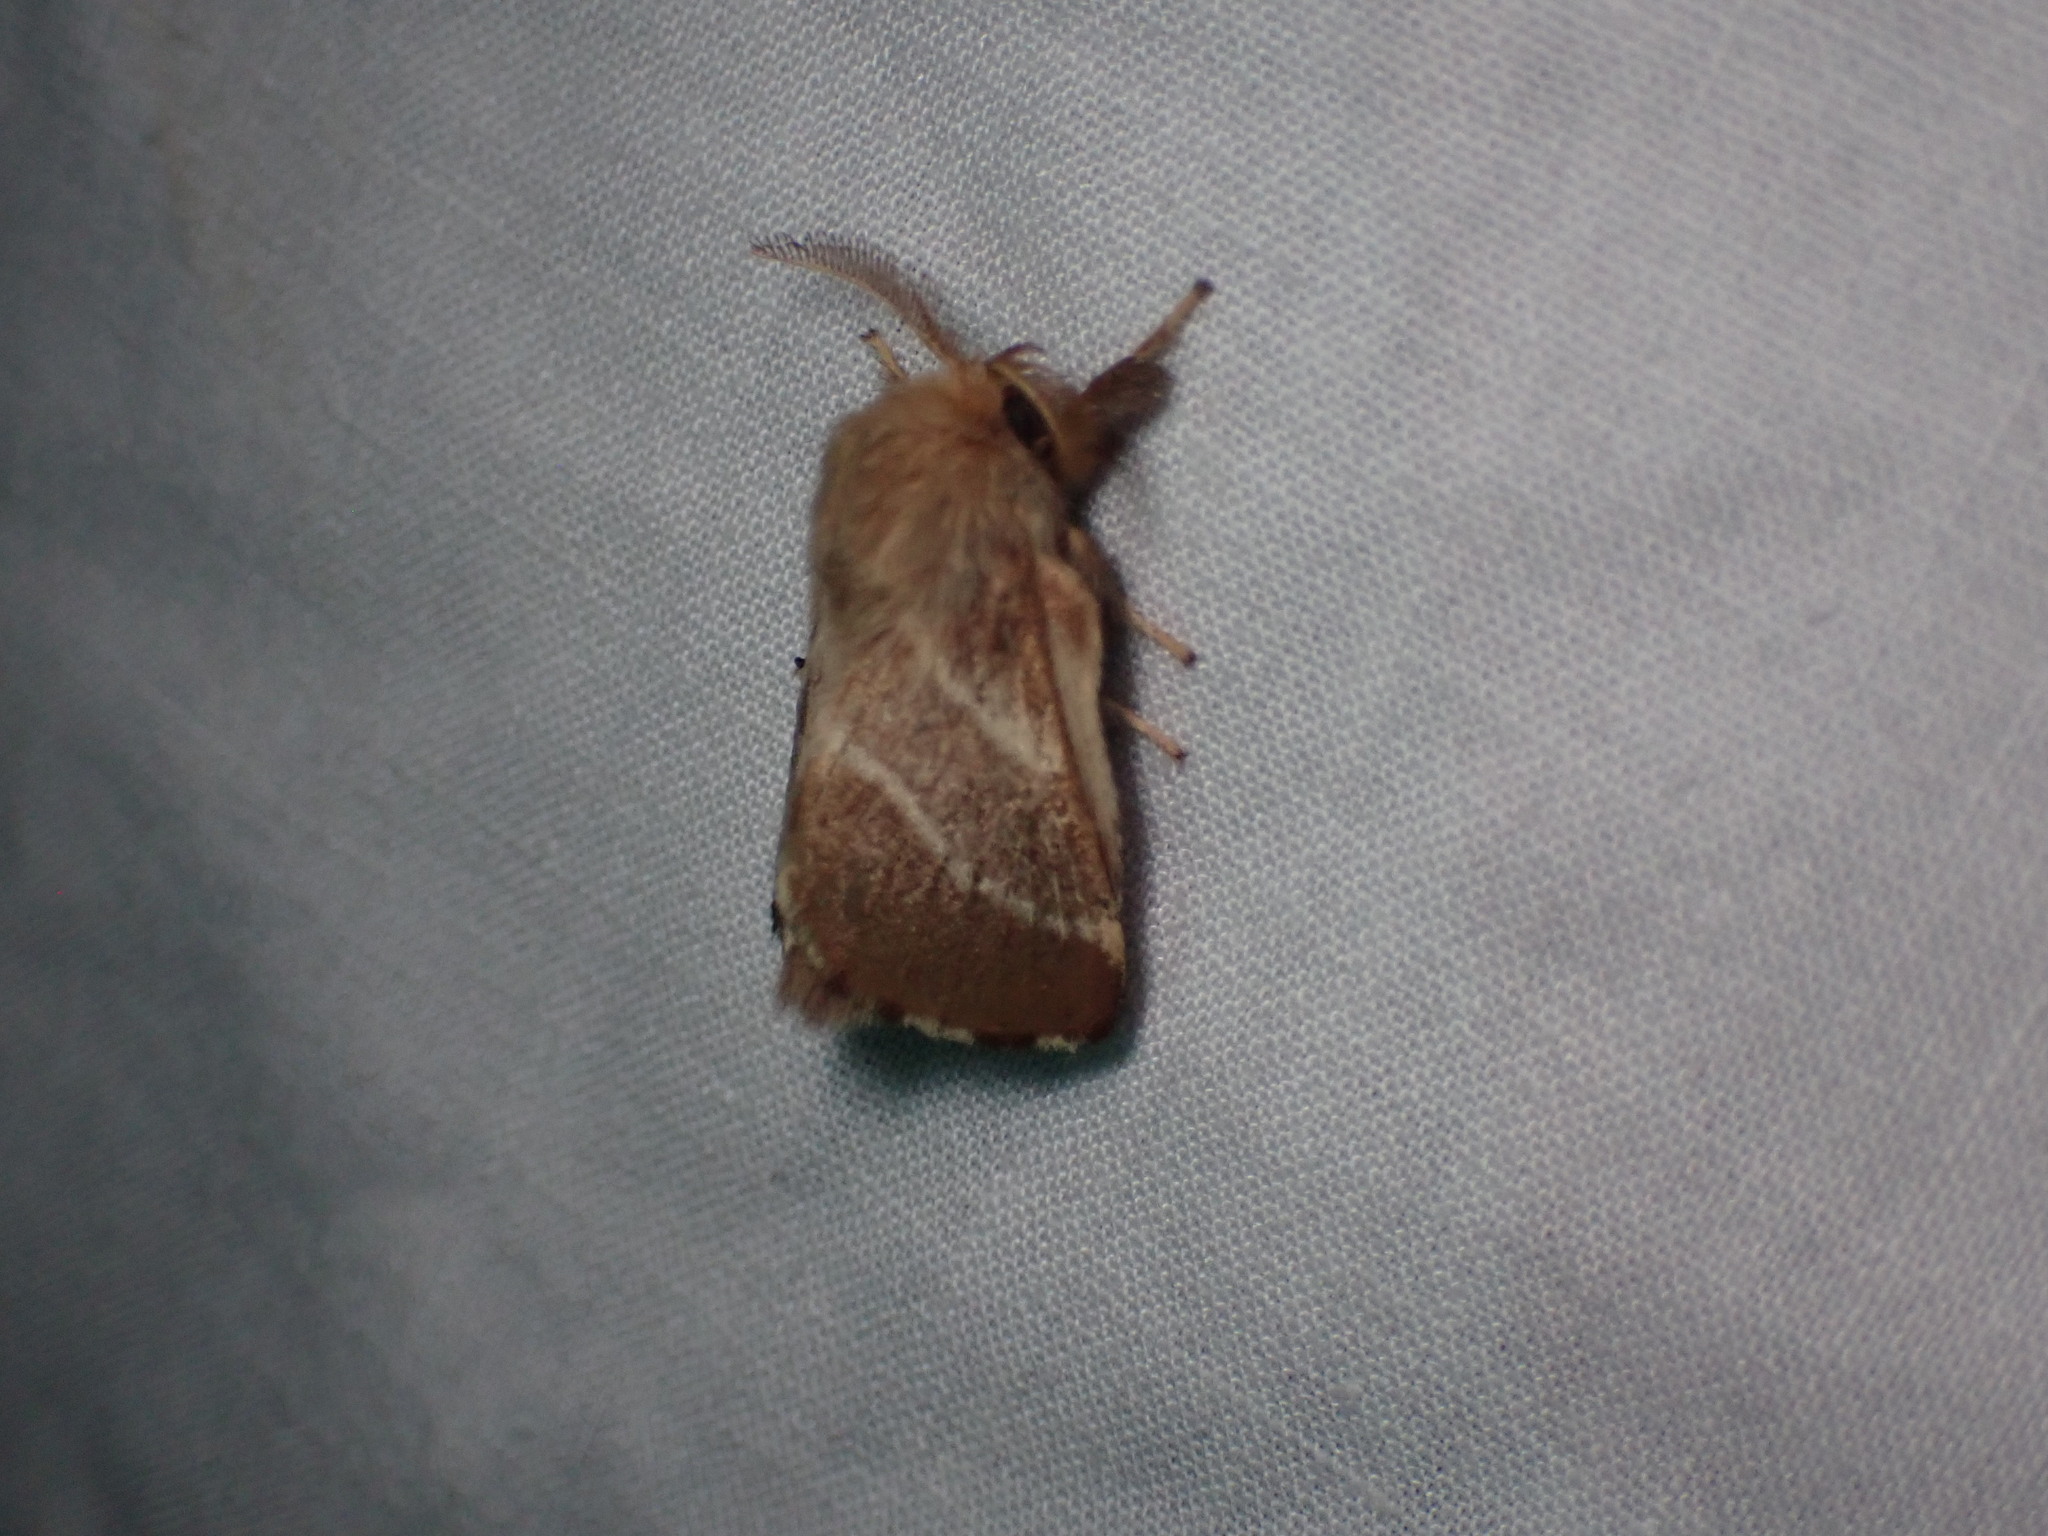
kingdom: Animalia
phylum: Arthropoda
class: Insecta
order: Lepidoptera
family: Lasiocampidae
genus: Malacosoma
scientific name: Malacosoma americana
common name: Eastern tent caterpillar moth
